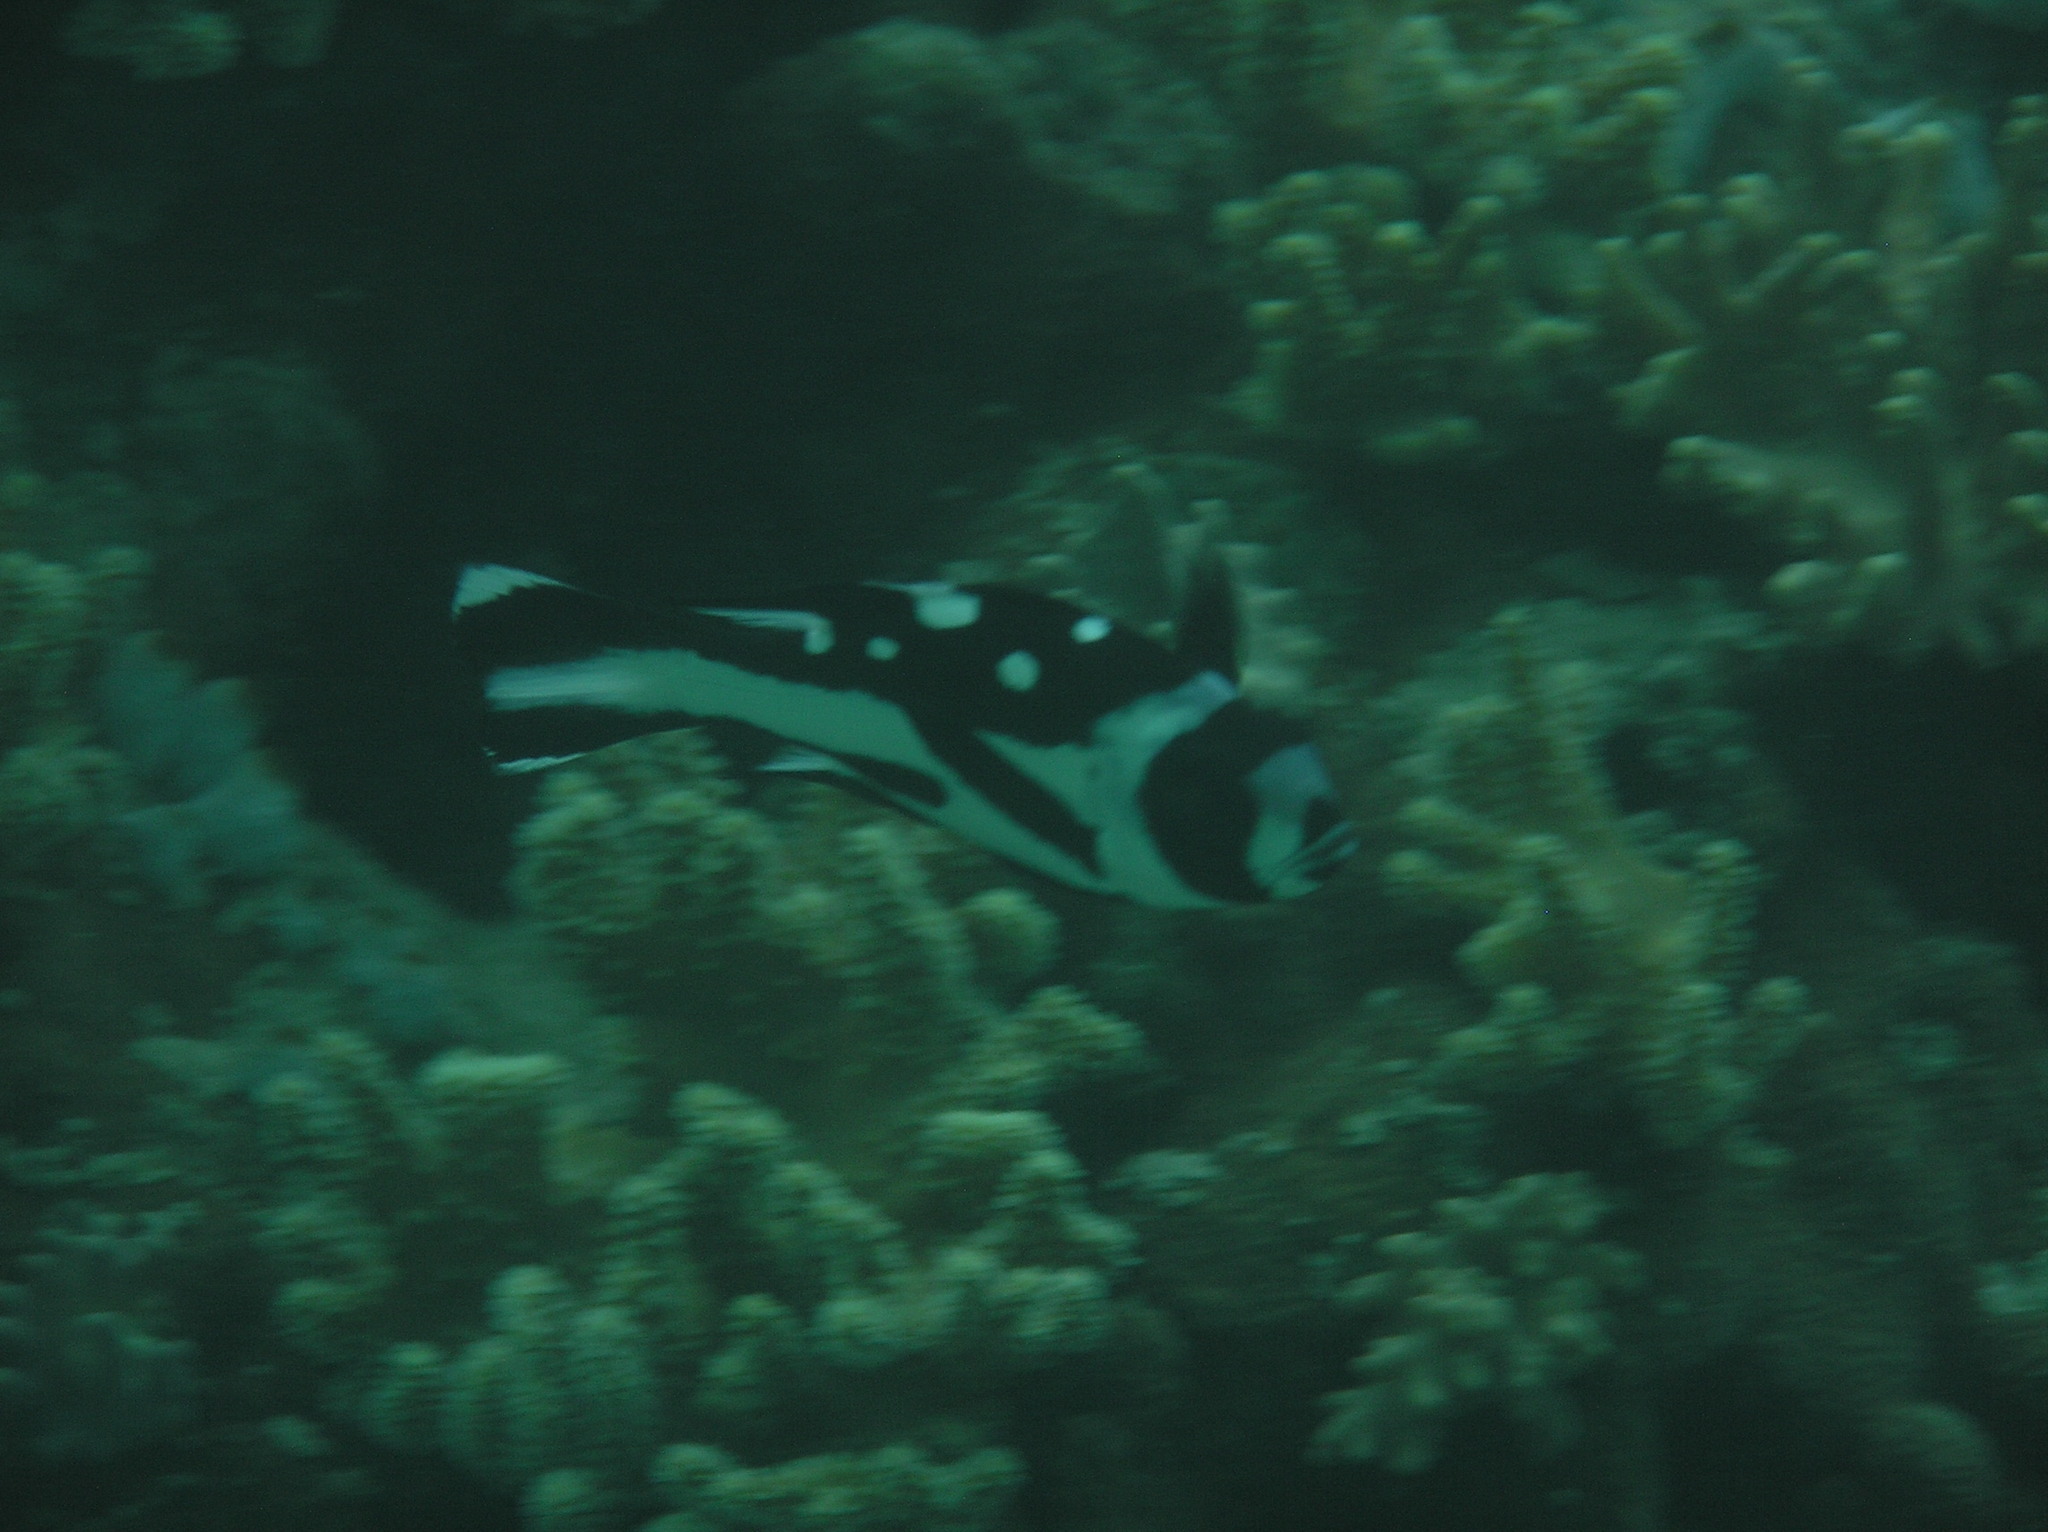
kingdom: Animalia
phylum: Chordata
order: Perciformes
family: Lutjanidae
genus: Macolor
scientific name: Macolor niger
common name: Black snapper
